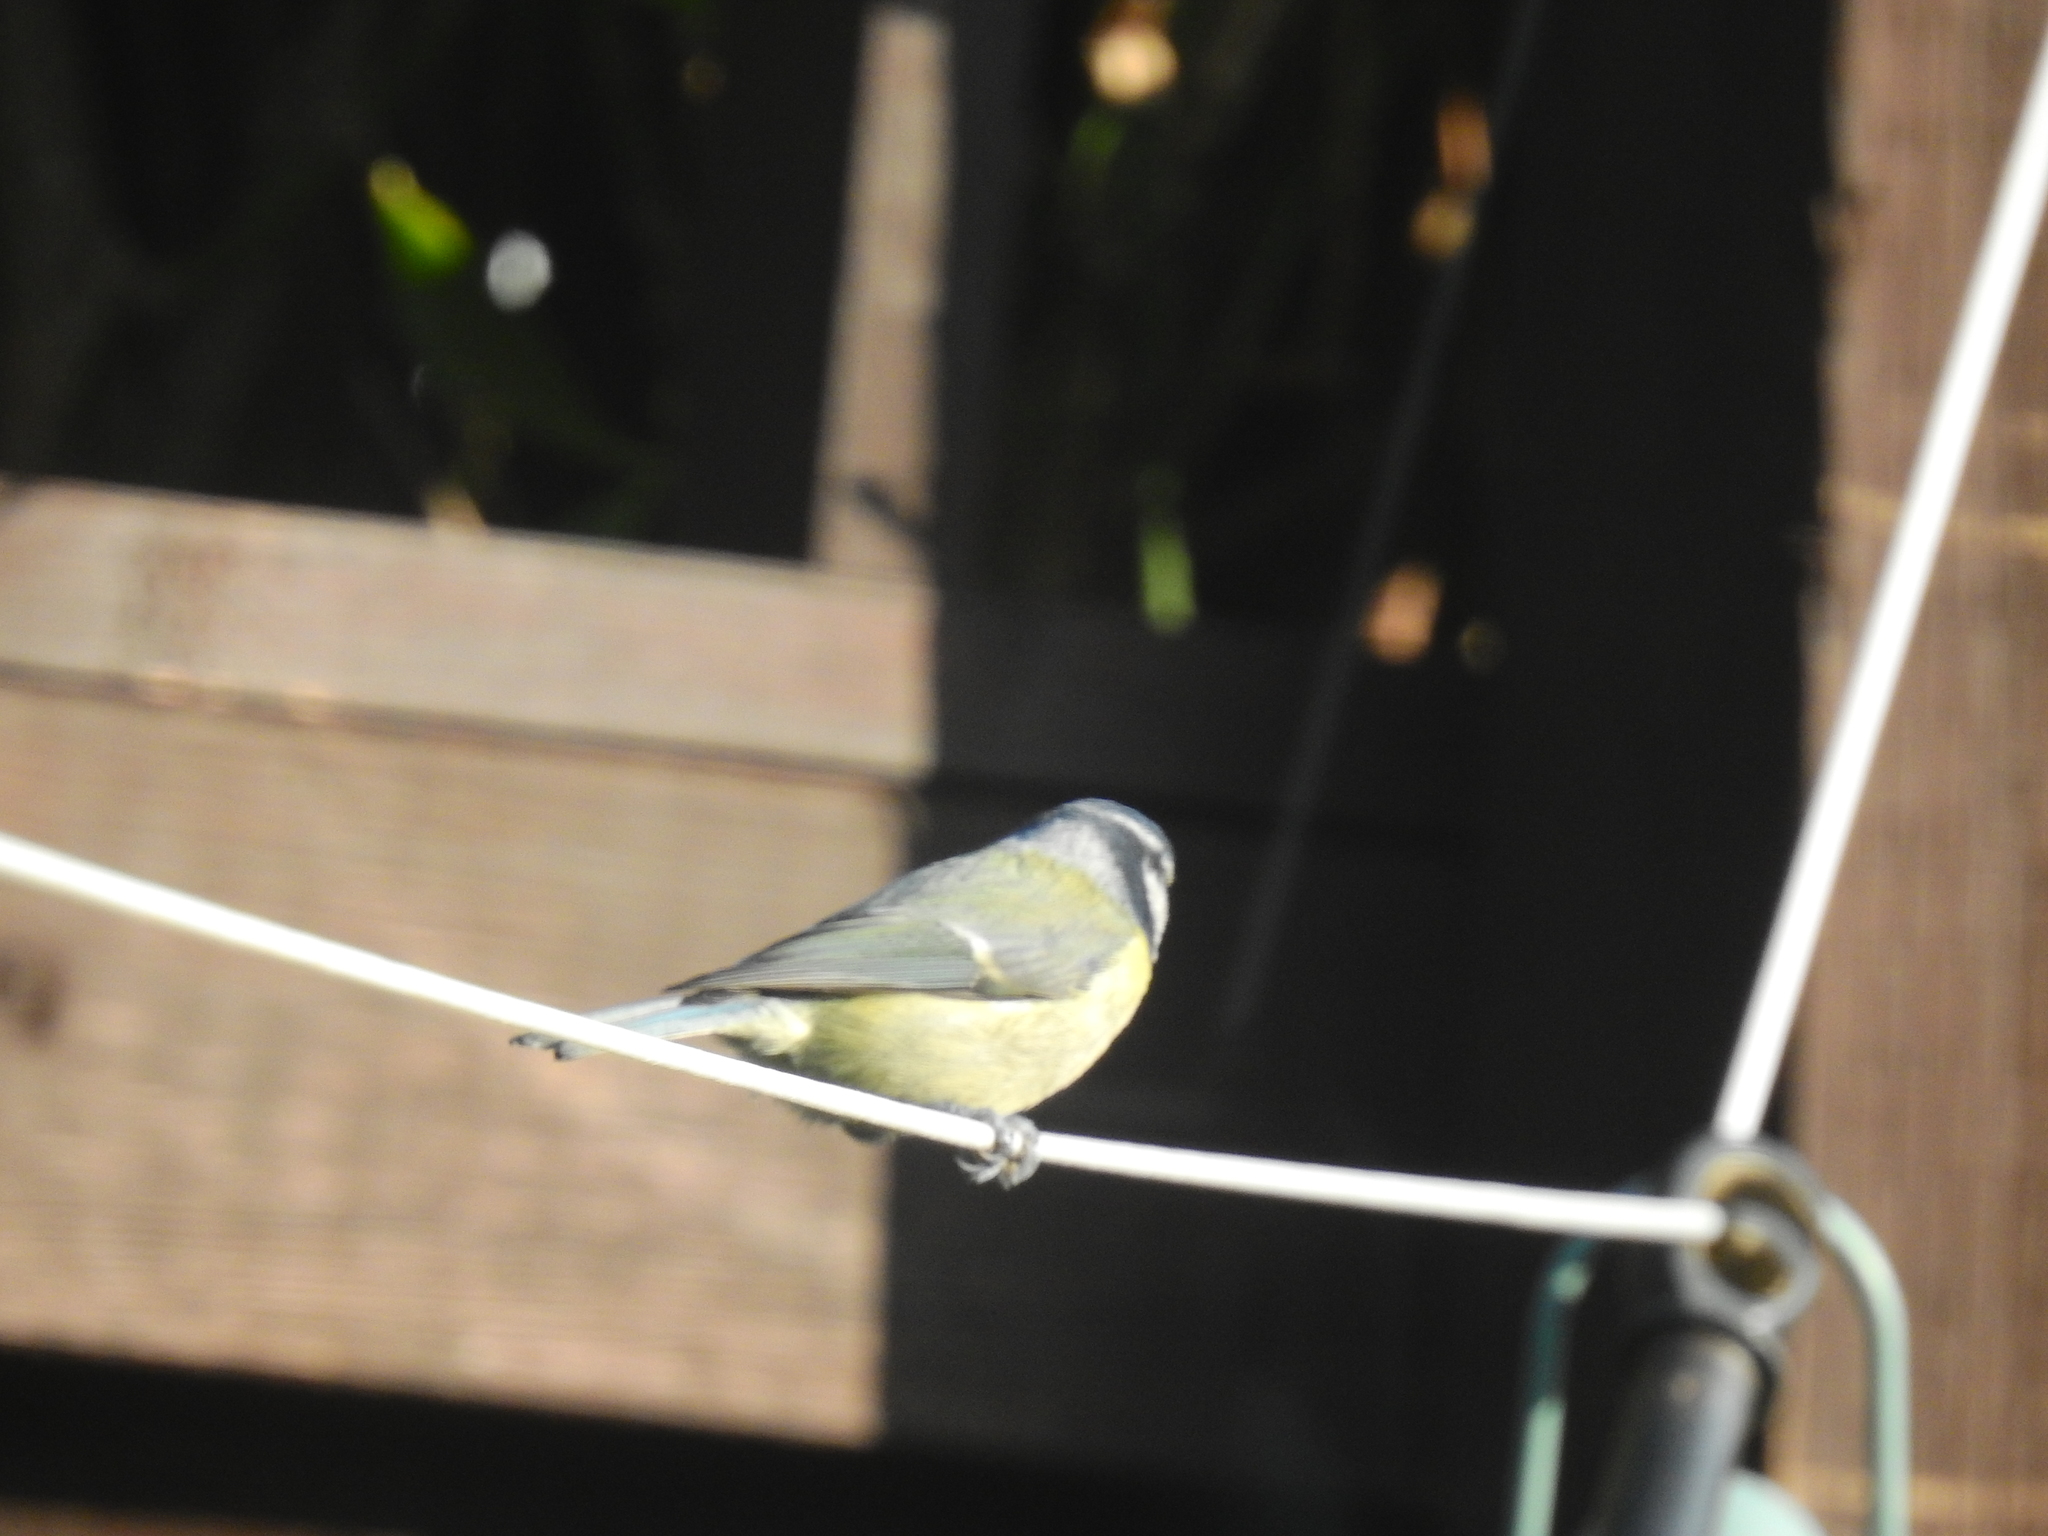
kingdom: Animalia
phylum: Chordata
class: Aves
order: Passeriformes
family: Paridae
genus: Cyanistes
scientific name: Cyanistes caeruleus
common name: Eurasian blue tit
